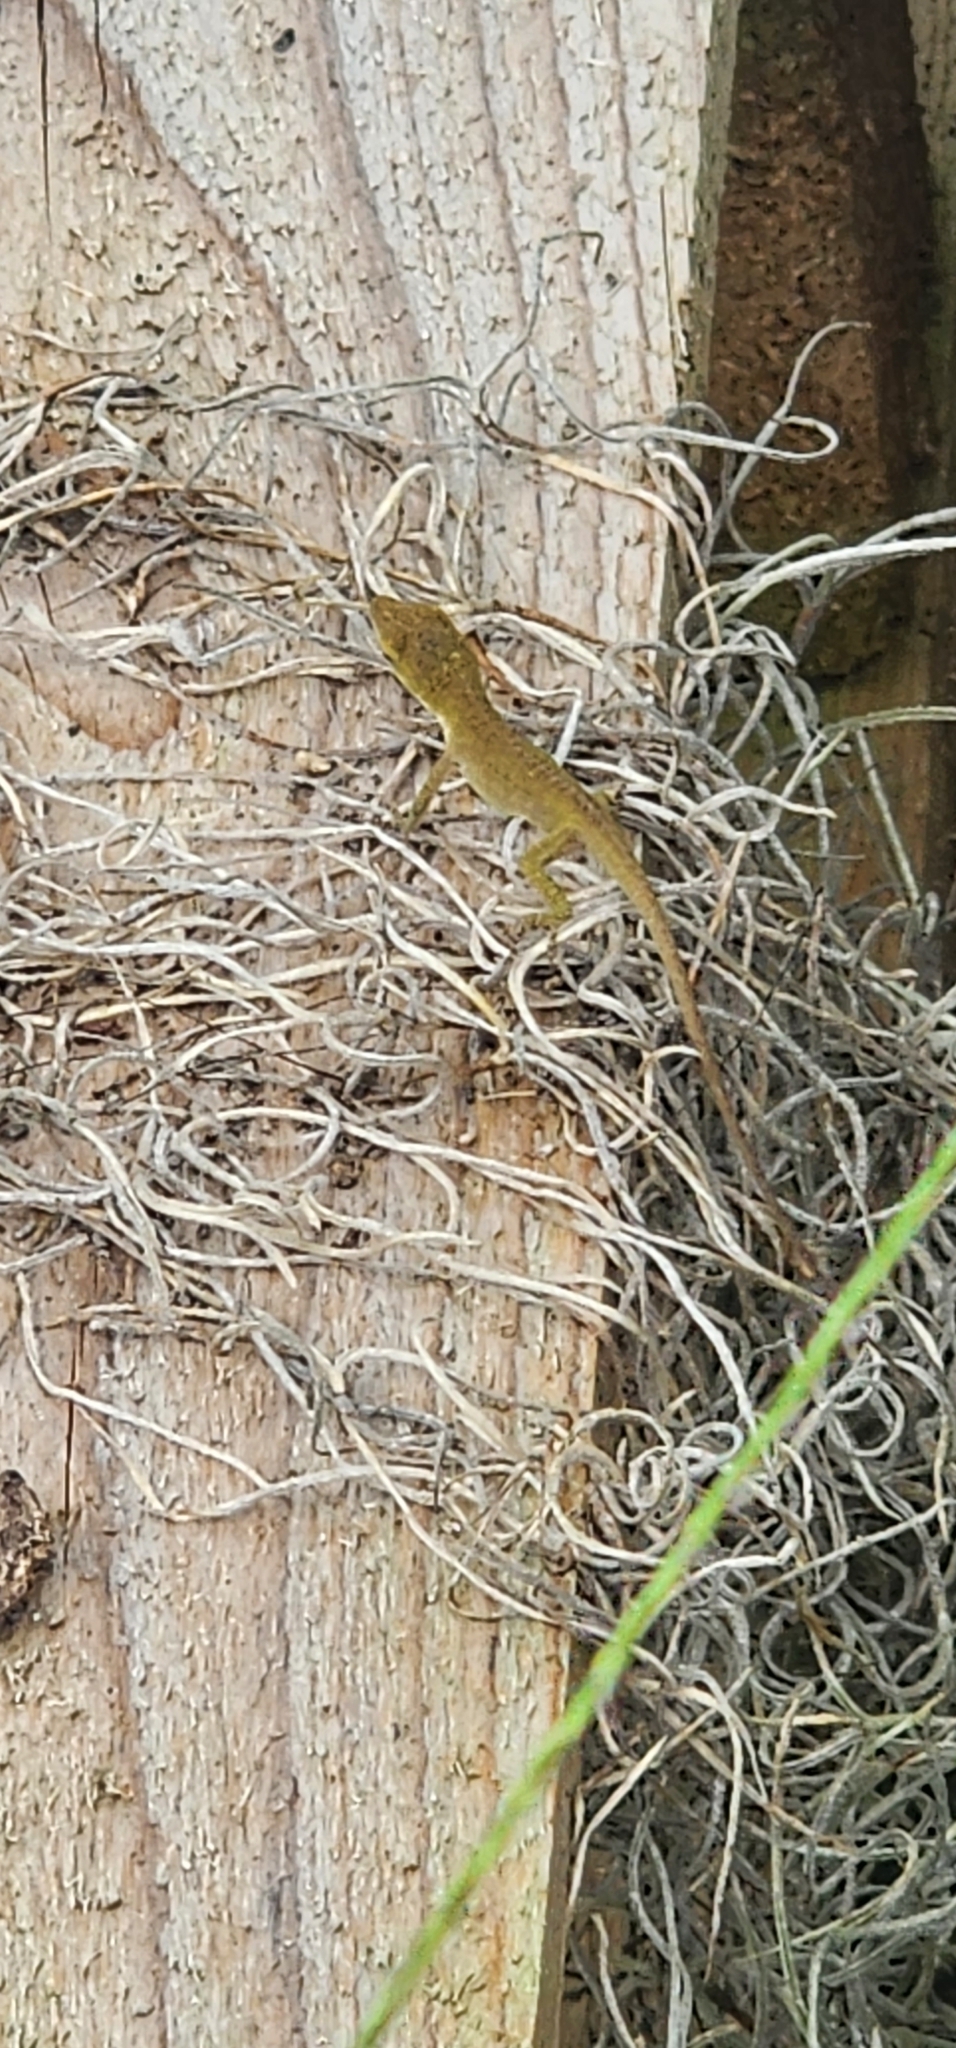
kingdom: Animalia
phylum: Chordata
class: Squamata
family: Dactyloidae
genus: Anolis
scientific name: Anolis carolinensis
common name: Green anole
